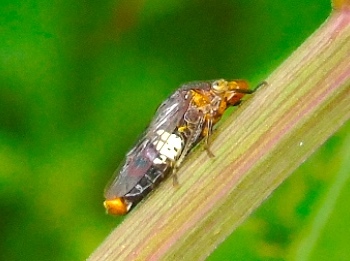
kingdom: Animalia
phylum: Arthropoda
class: Insecta
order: Hemiptera
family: Cicadellidae
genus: Homalodisca
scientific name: Homalodisca ichthyocephala
